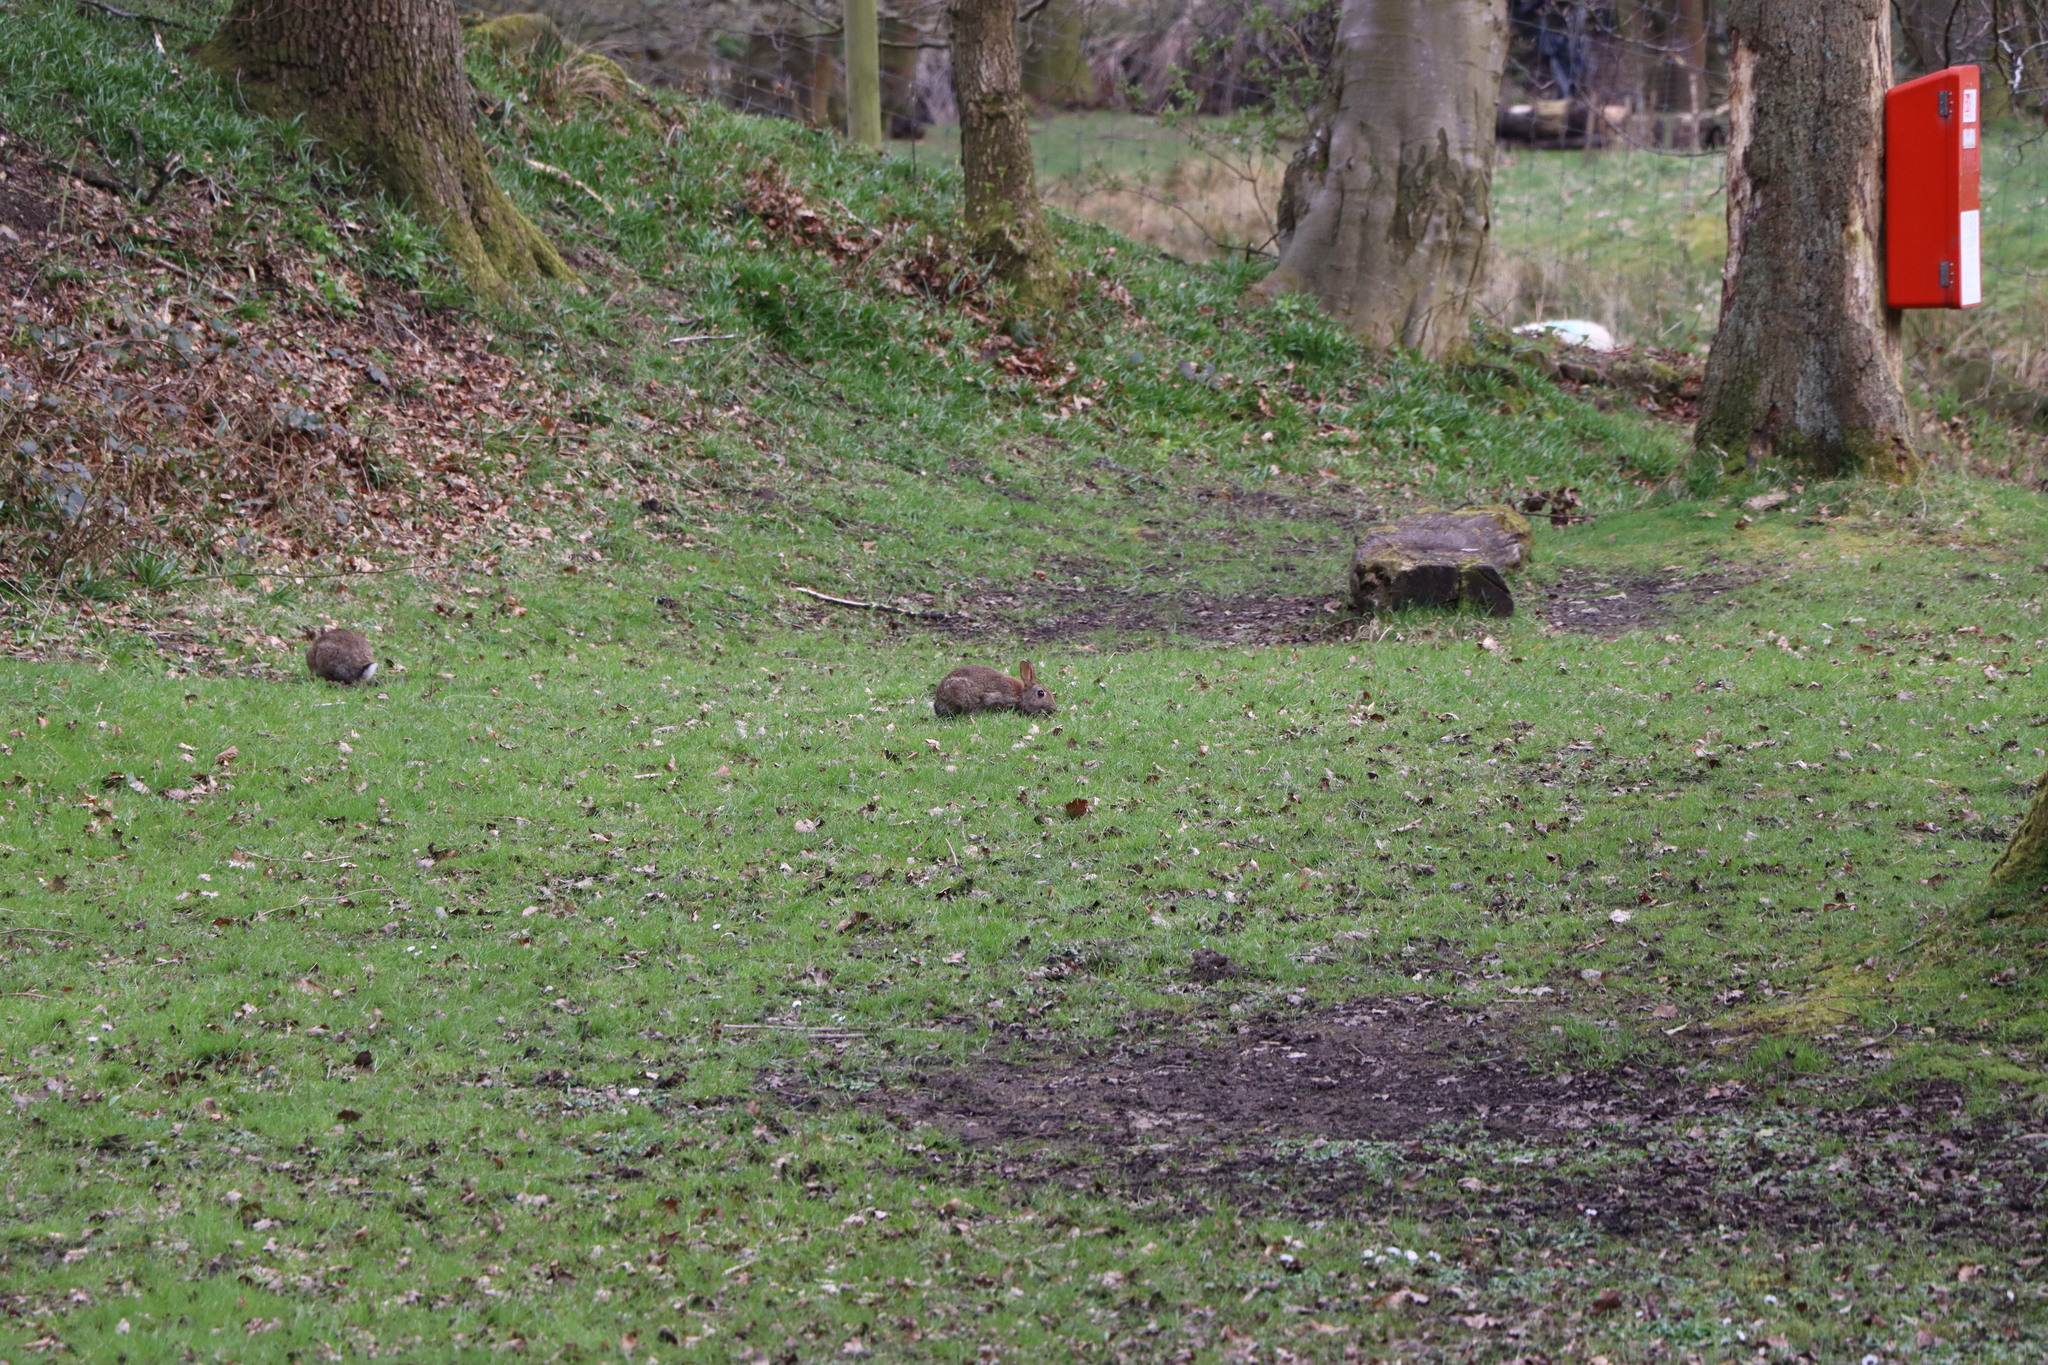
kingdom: Animalia
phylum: Chordata
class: Mammalia
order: Lagomorpha
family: Leporidae
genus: Oryctolagus
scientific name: Oryctolagus cuniculus
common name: European rabbit
